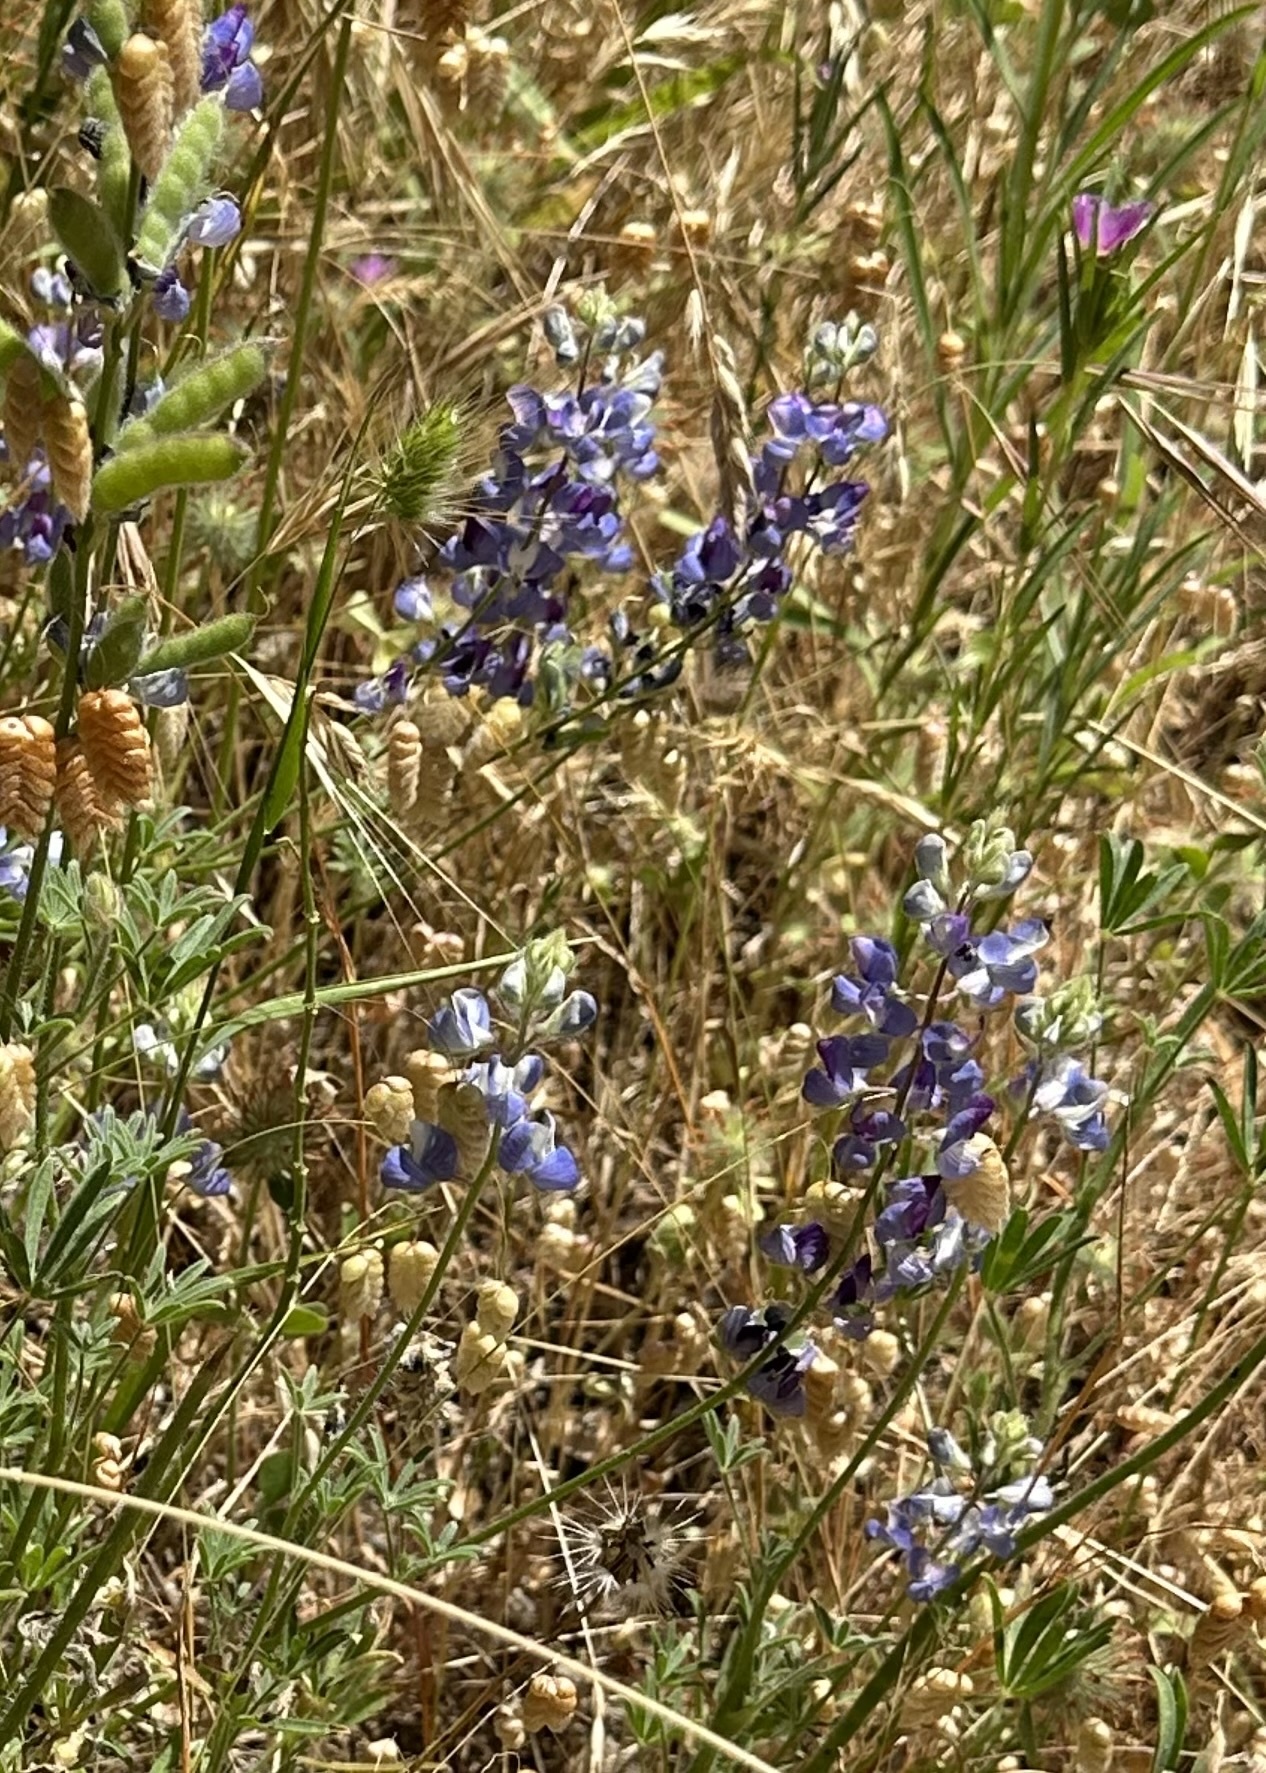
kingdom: Plantae
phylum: Tracheophyta
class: Magnoliopsida
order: Fabales
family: Fabaceae
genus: Lupinus
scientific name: Lupinus benthamii
